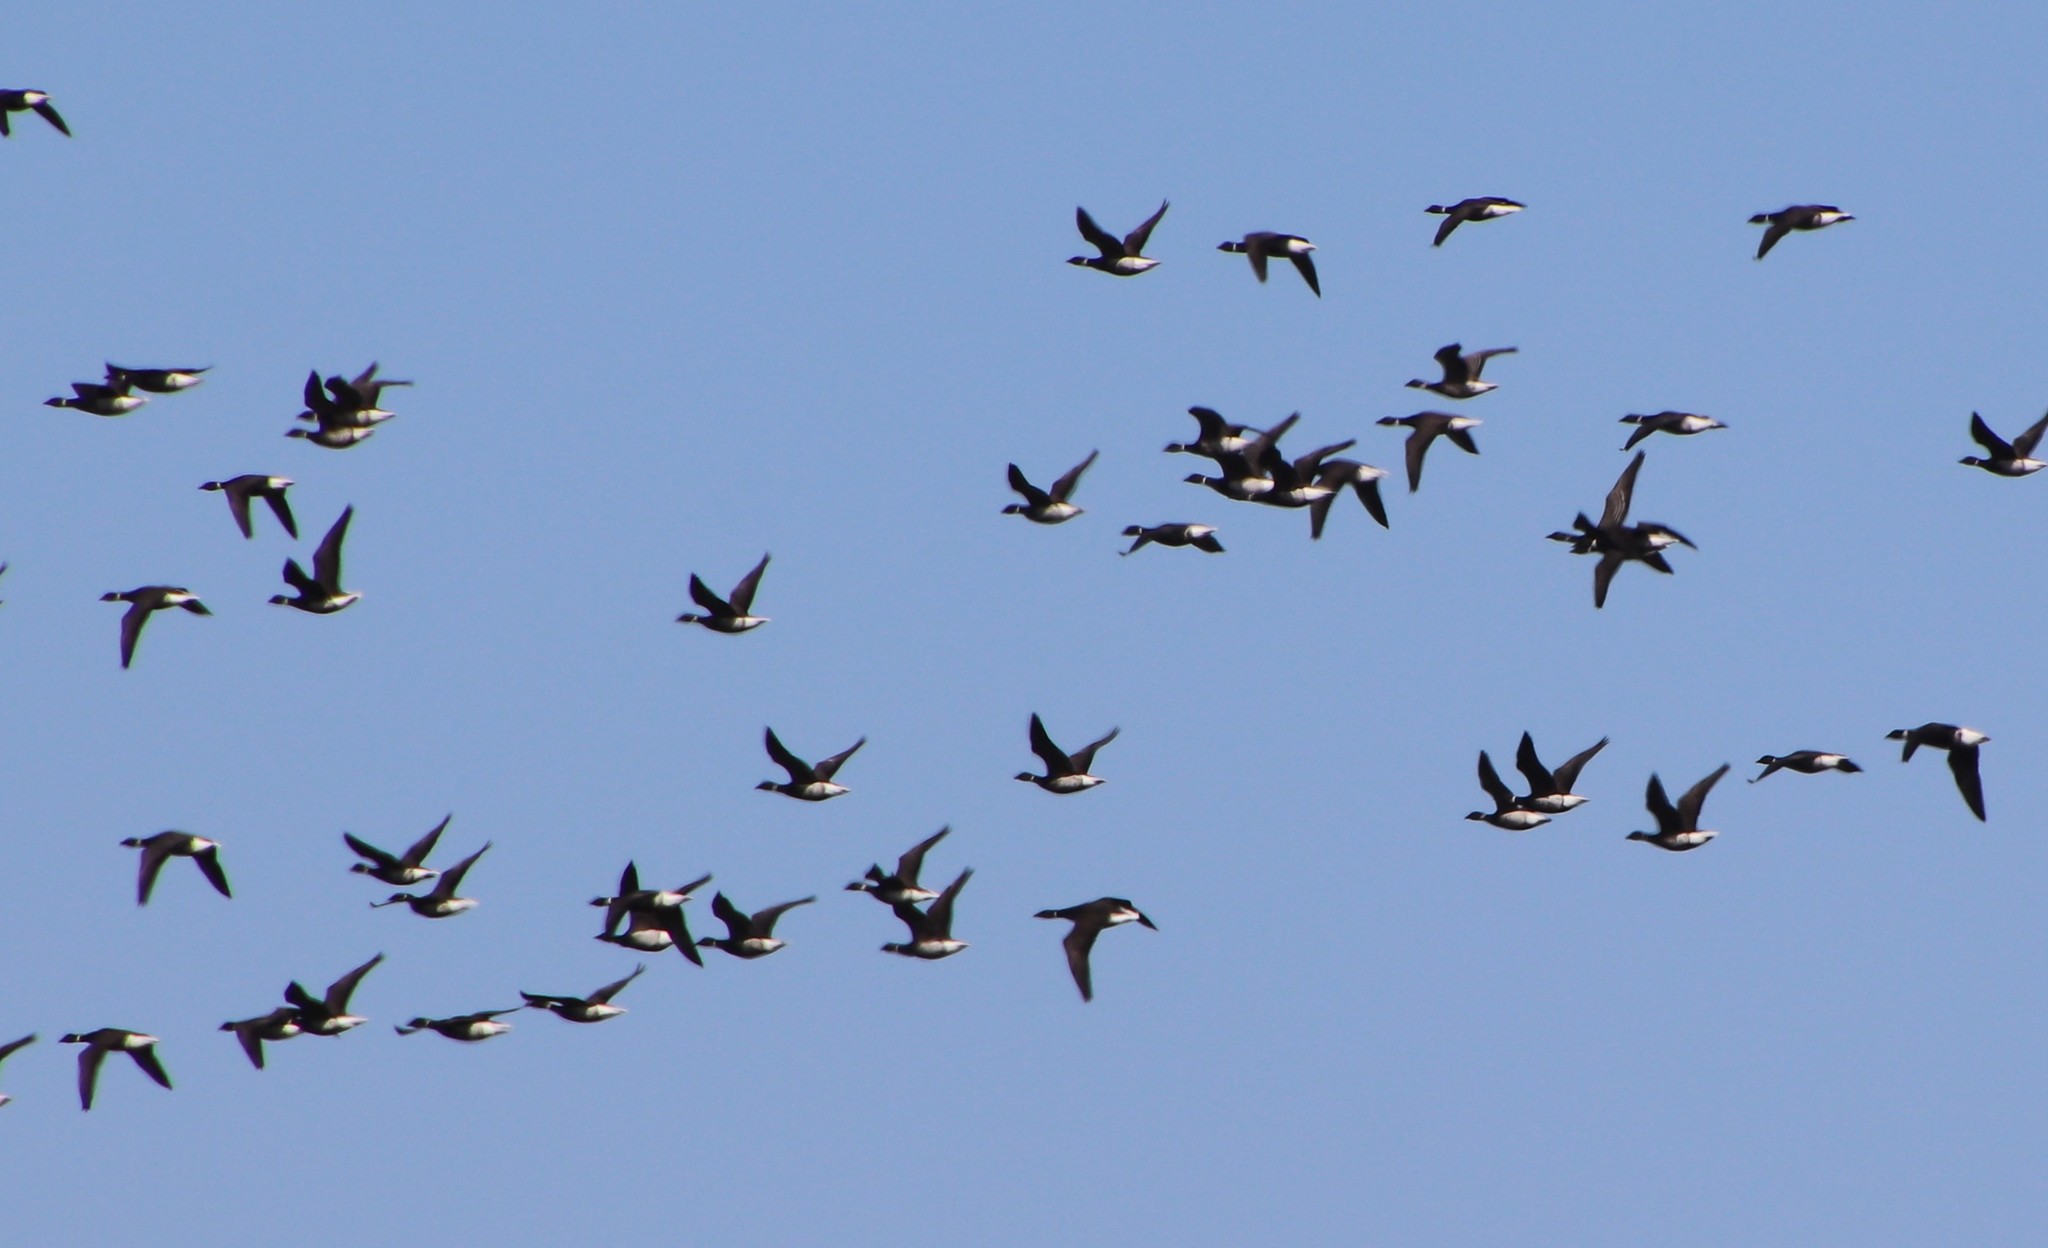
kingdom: Animalia
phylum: Chordata
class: Aves
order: Anseriformes
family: Anatidae
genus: Branta
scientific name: Branta bernicla
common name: Brant goose
